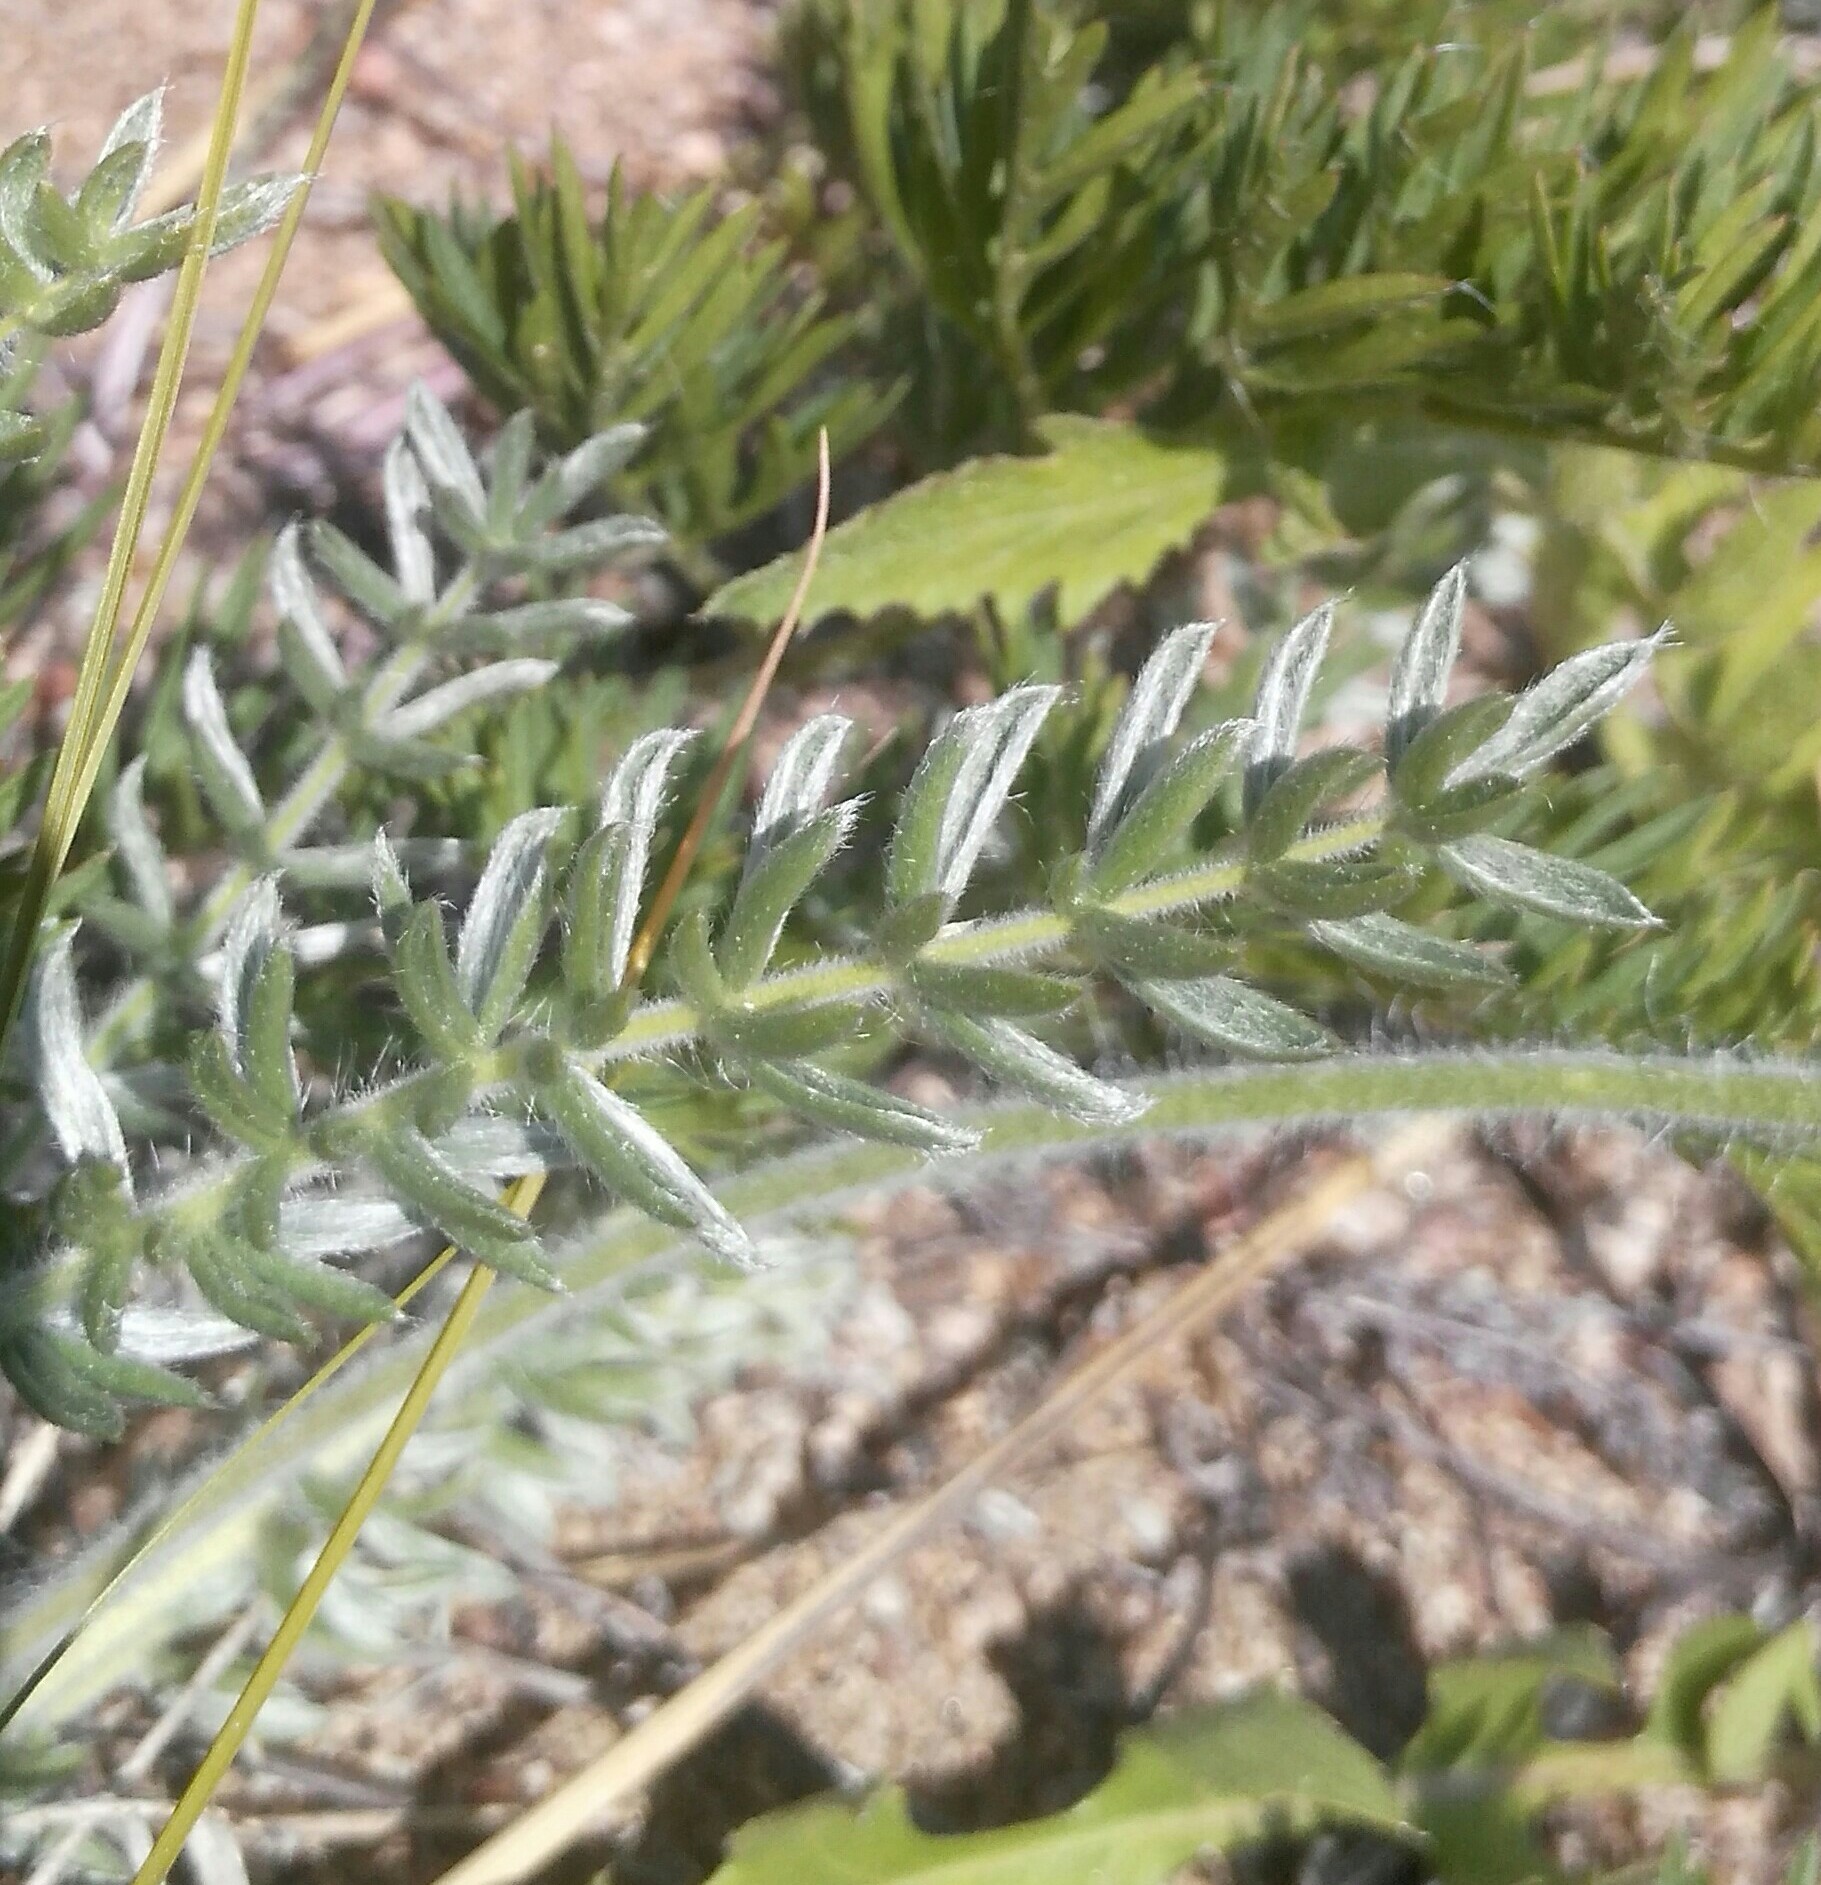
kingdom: Plantae
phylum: Tracheophyta
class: Magnoliopsida
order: Fabales
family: Fabaceae
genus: Oxytropis
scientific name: Oxytropis turczaninovii
